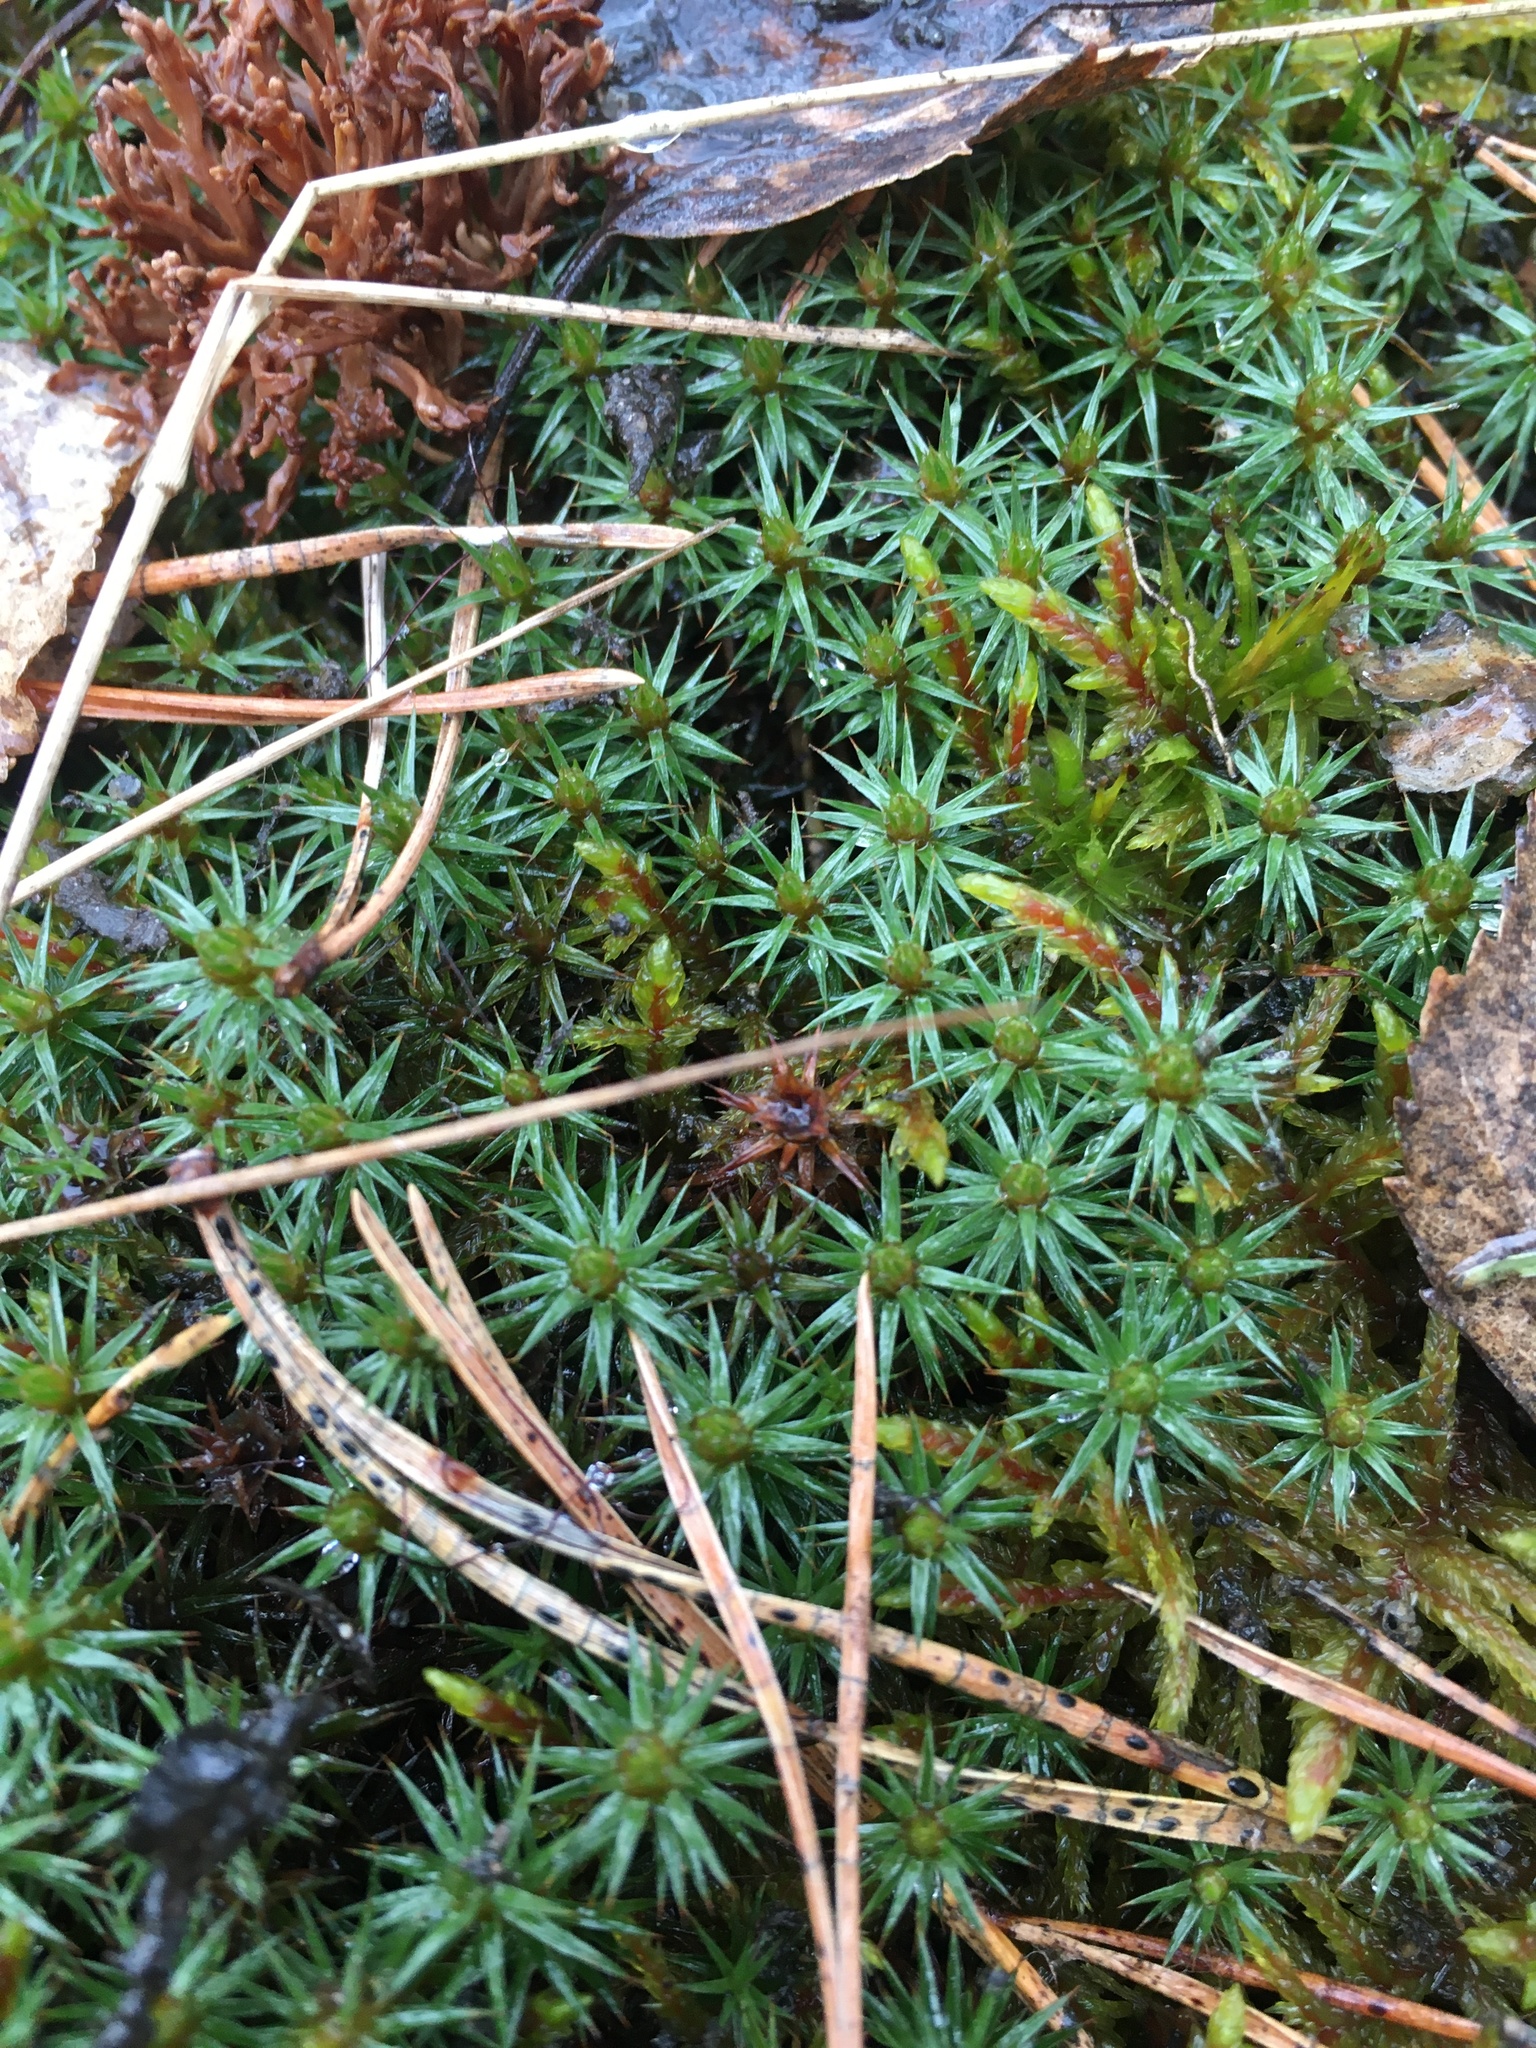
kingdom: Plantae
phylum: Bryophyta
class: Polytrichopsida
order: Polytrichales
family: Polytrichaceae
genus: Polytrichum
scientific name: Polytrichum juniperinum
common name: Juniper haircap moss
